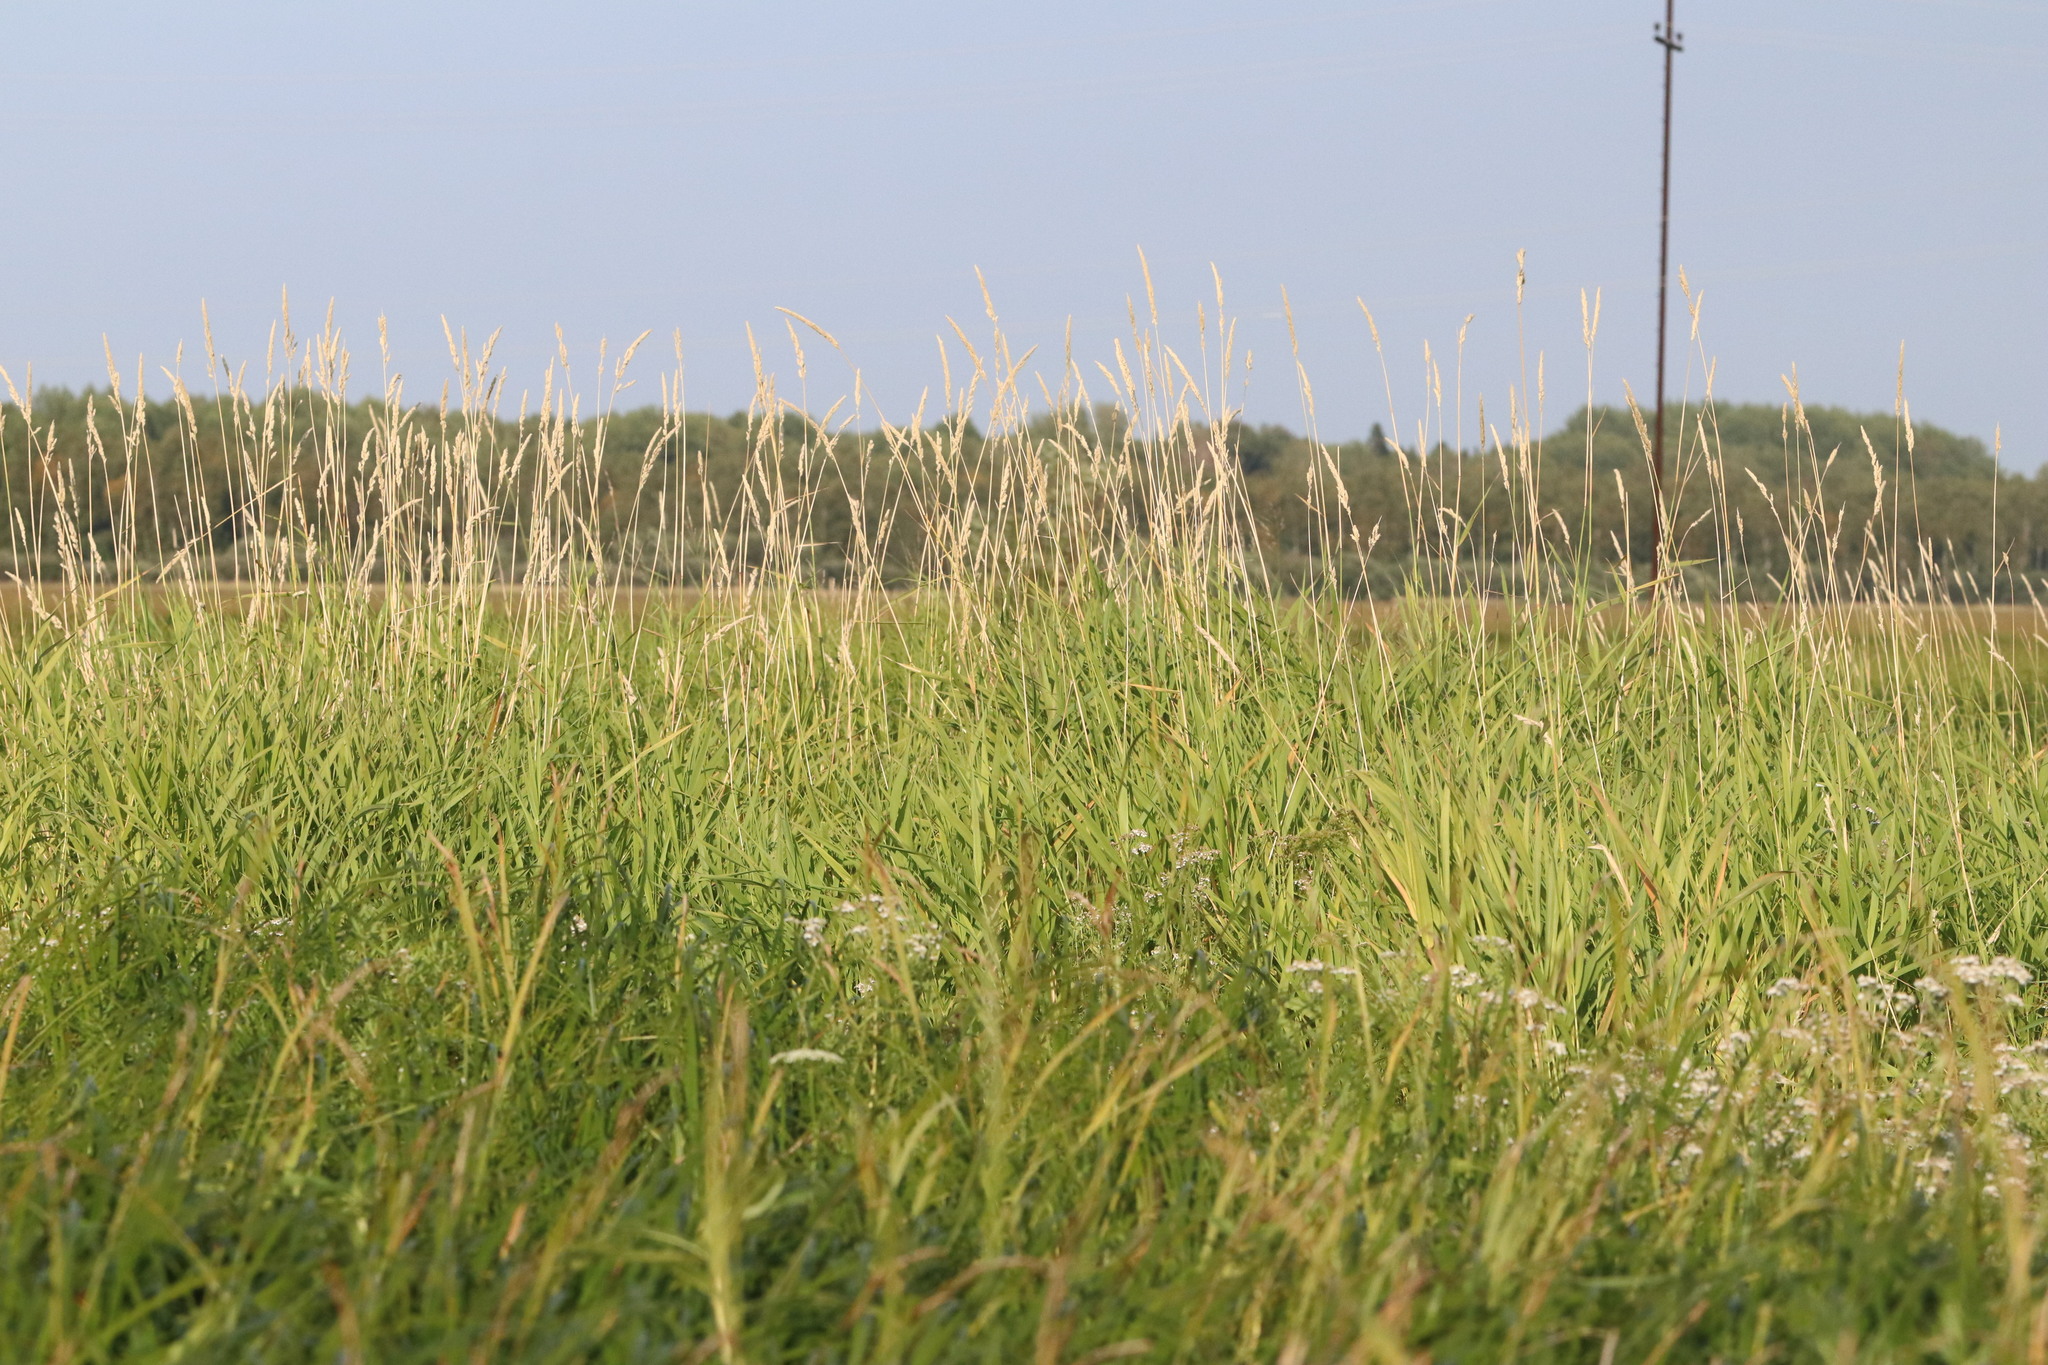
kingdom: Plantae
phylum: Tracheophyta
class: Liliopsida
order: Poales
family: Poaceae
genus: Phalaris
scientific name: Phalaris arundinacea
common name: Reed canary-grass
